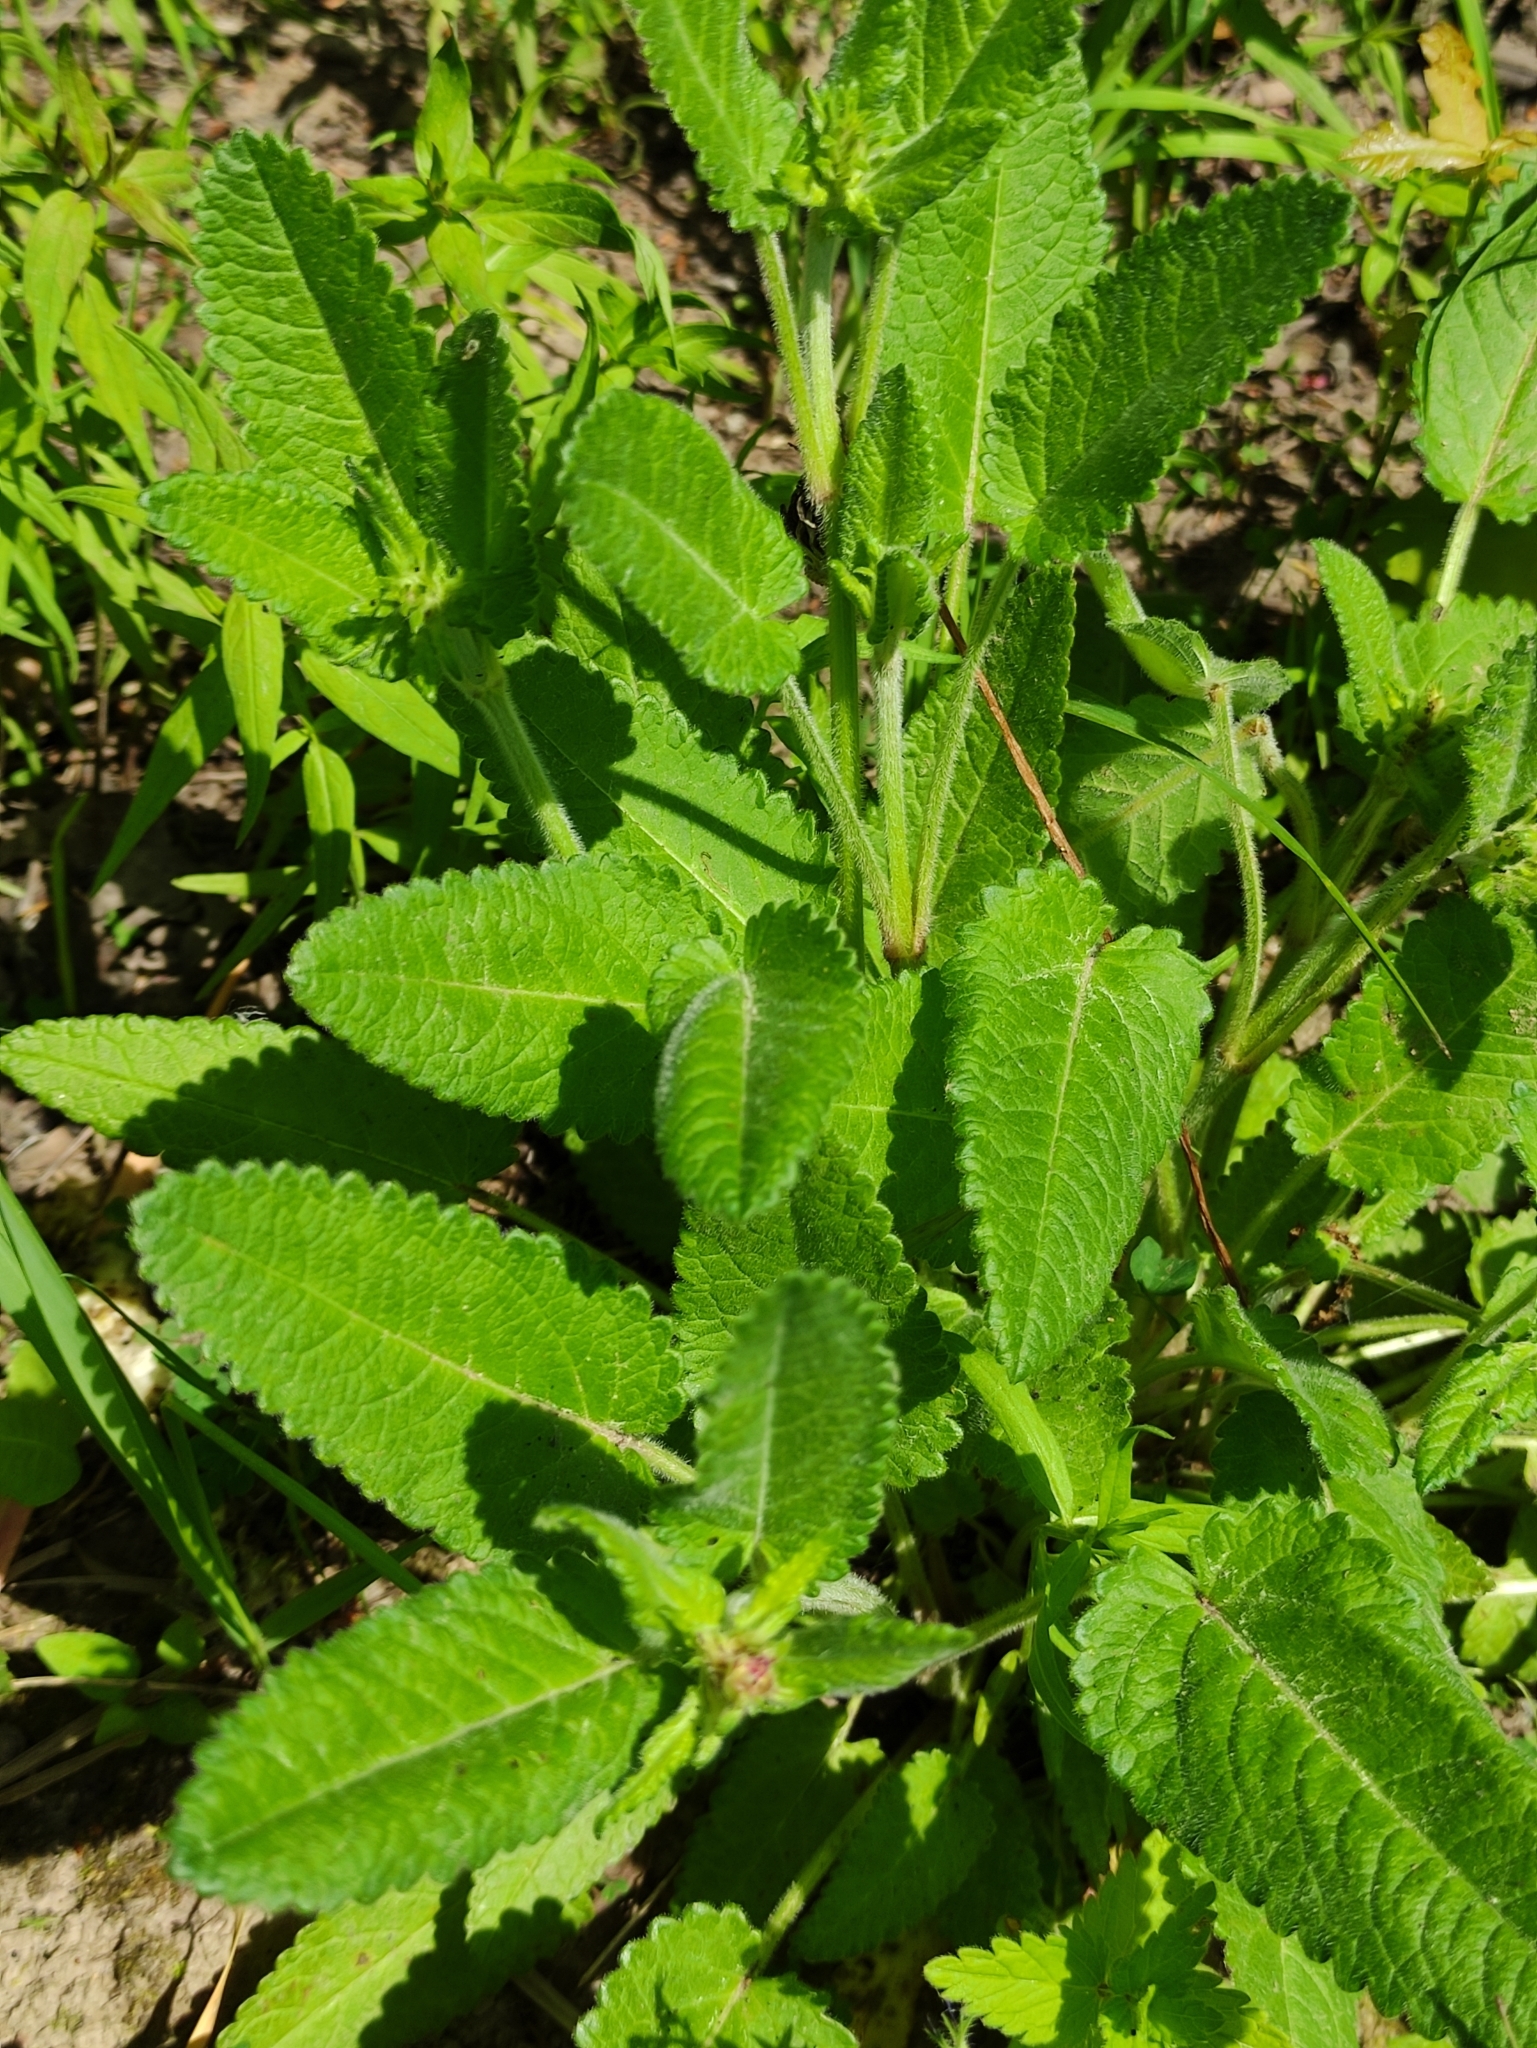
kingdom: Plantae
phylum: Tracheophyta
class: Magnoliopsida
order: Lamiales
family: Lamiaceae
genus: Betonica
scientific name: Betonica officinalis
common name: Bishop's-wort
